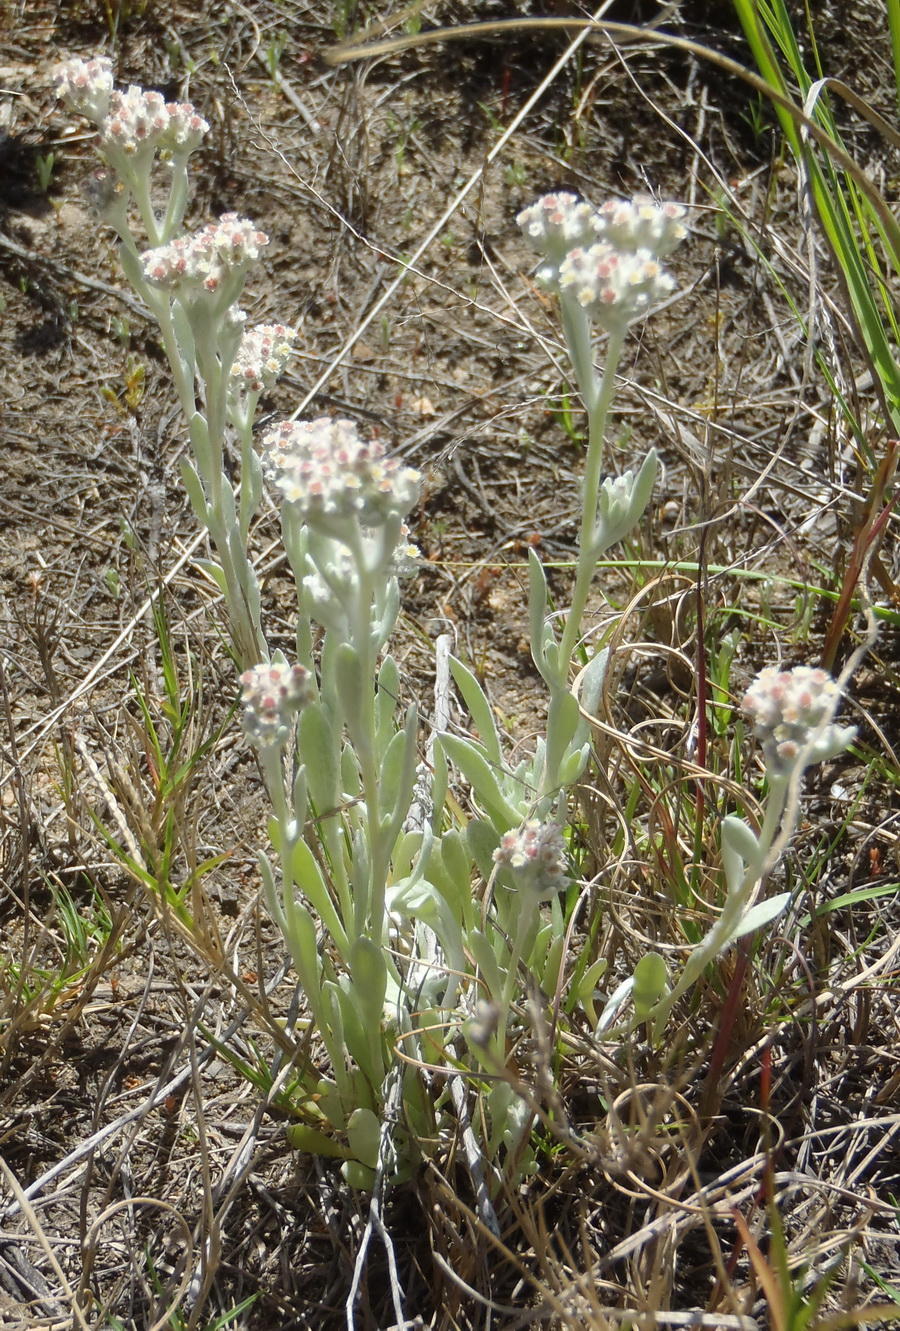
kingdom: Plantae
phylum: Tracheophyta
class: Magnoliopsida
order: Asterales
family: Asteraceae
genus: Vellereophyton
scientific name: Vellereophyton dealbatum
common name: White-cudweed
